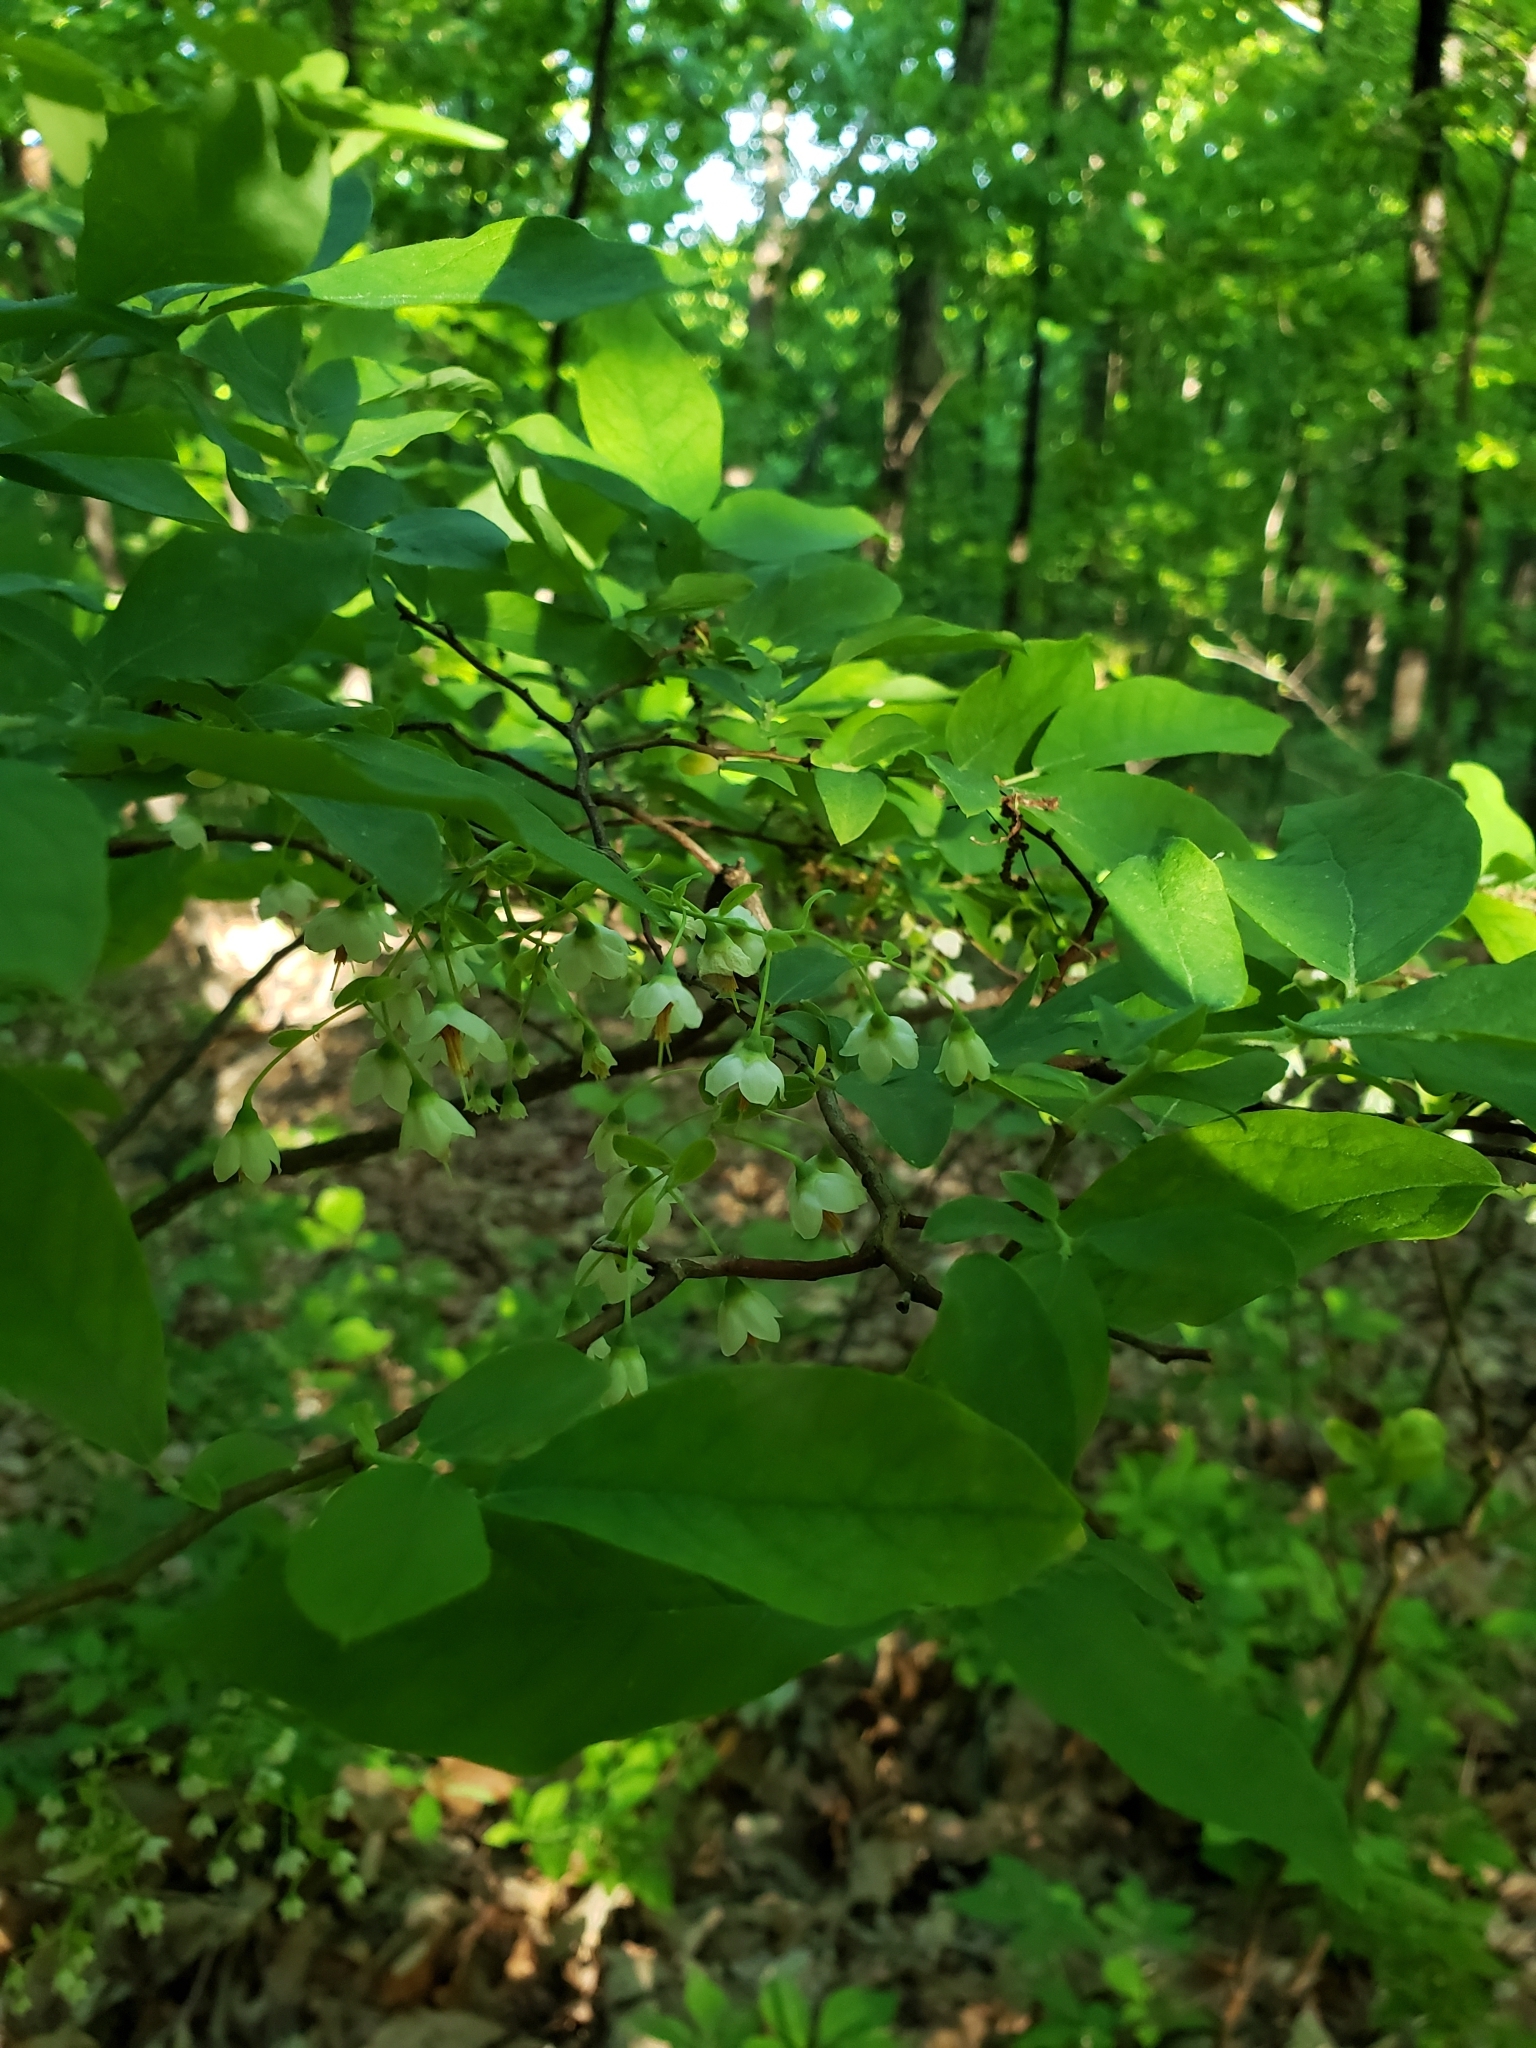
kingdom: Plantae
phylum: Tracheophyta
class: Magnoliopsida
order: Ericales
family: Ericaceae
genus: Vaccinium
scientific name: Vaccinium stamineum
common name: Deerberry
